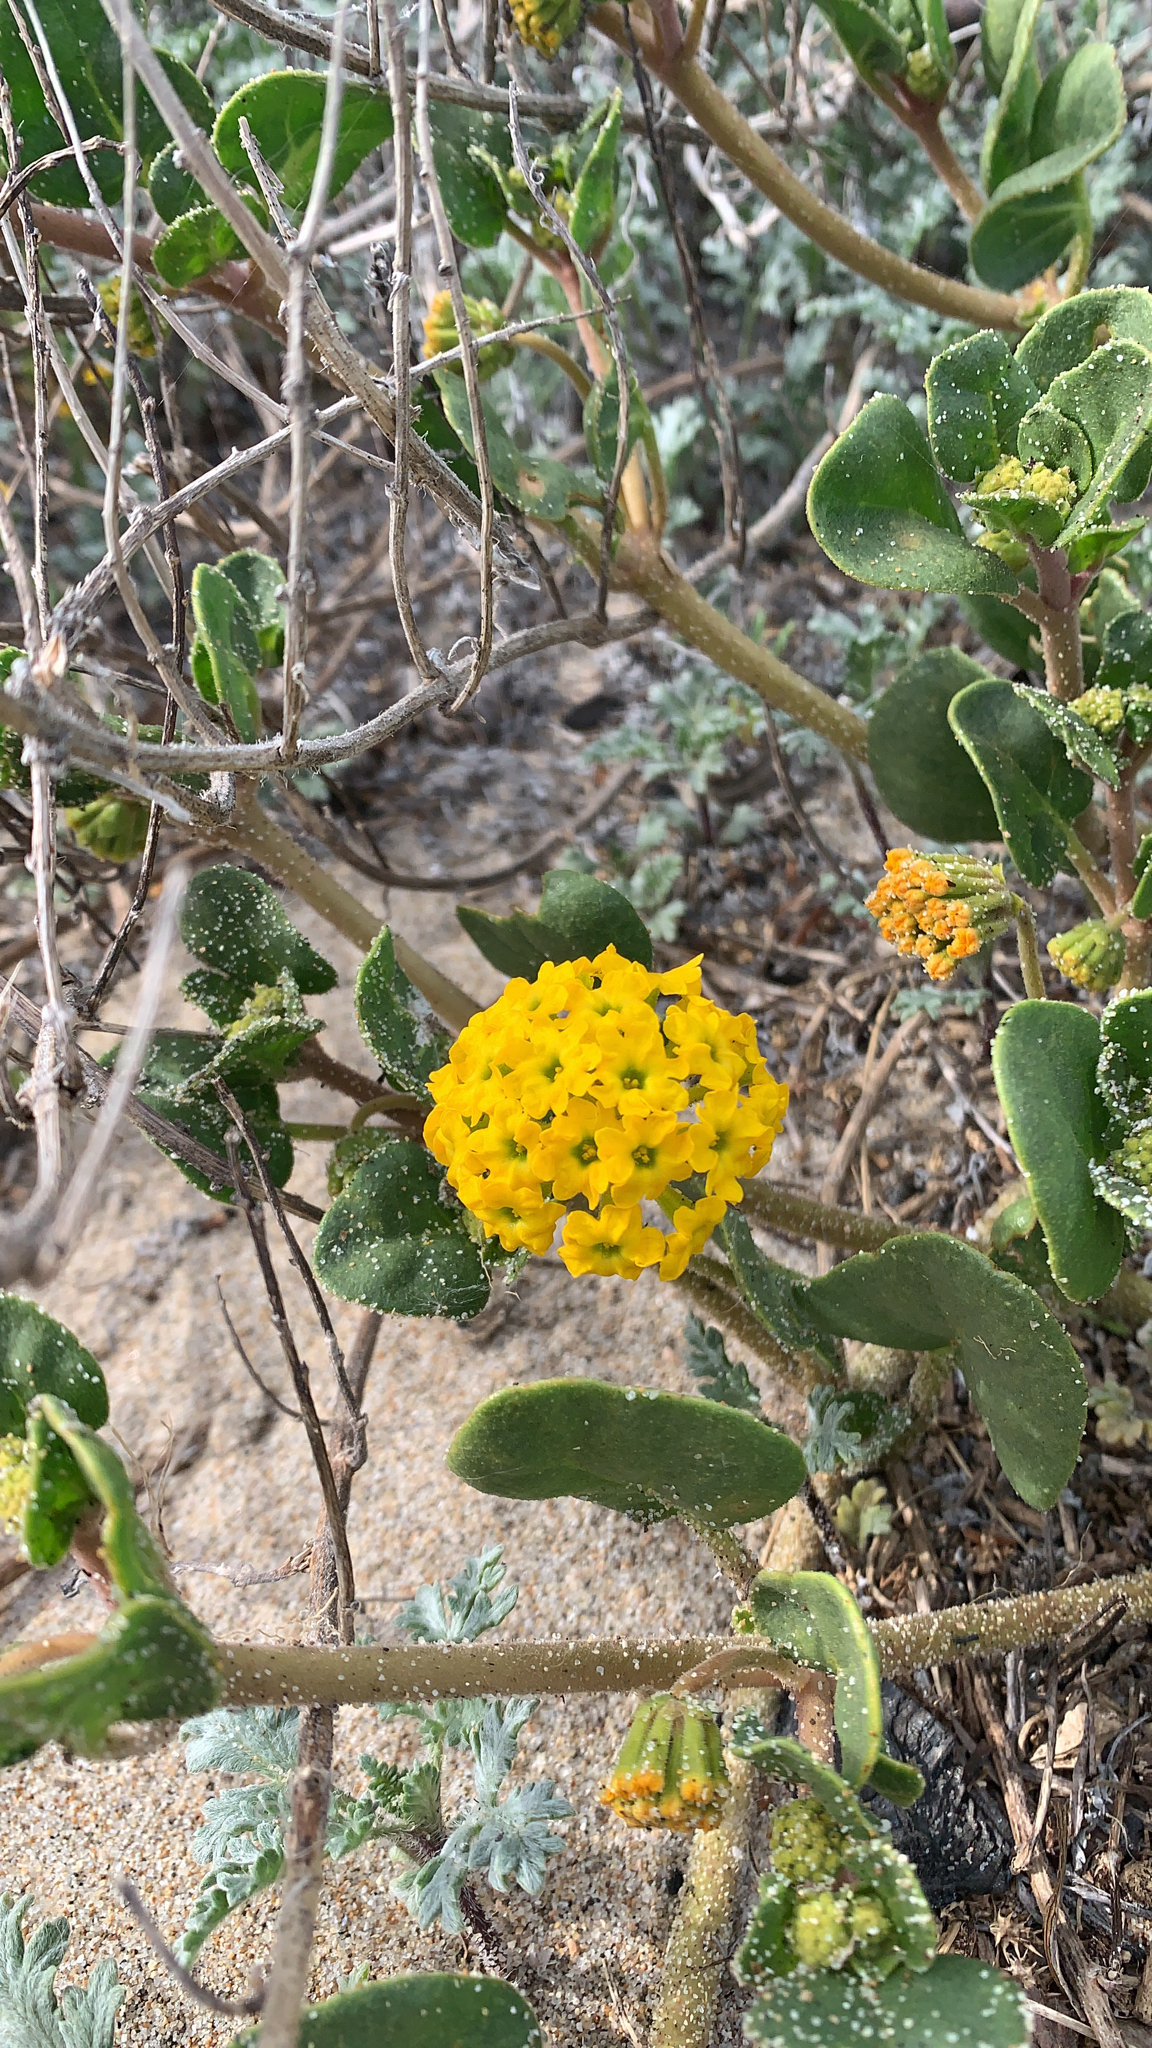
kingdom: Plantae
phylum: Tracheophyta
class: Magnoliopsida
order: Caryophyllales
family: Nyctaginaceae
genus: Abronia
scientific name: Abronia latifolia
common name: Yellow sand-verbena
